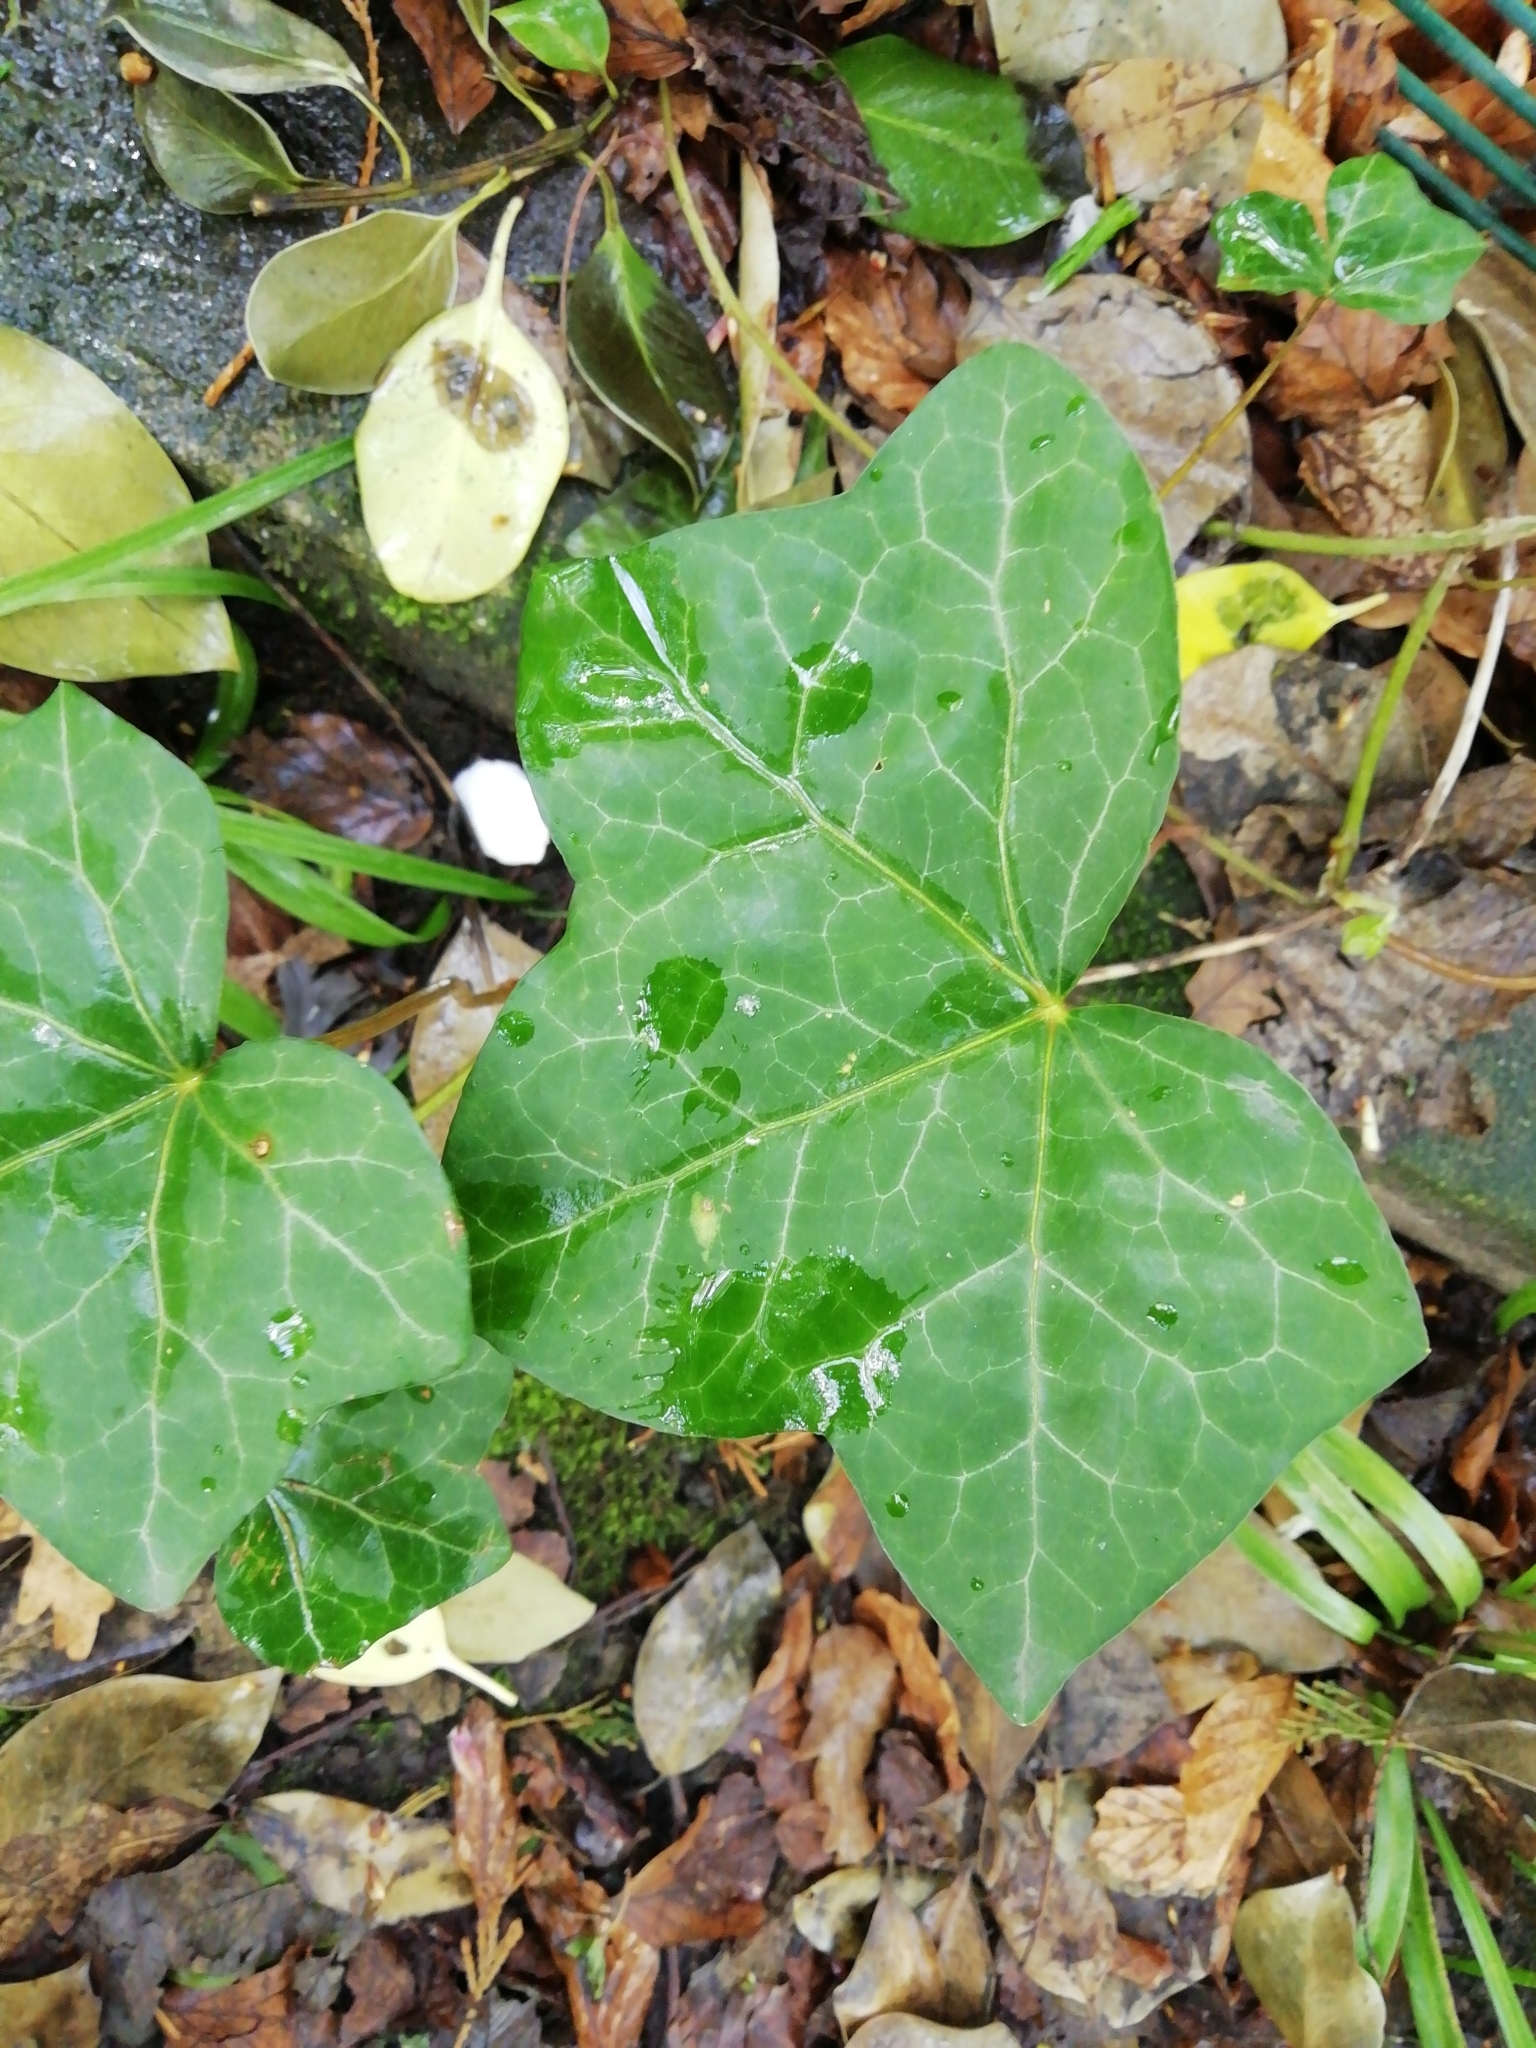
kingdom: Plantae
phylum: Tracheophyta
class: Magnoliopsida
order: Apiales
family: Araliaceae
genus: Hedera
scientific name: Hedera helix
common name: Ivy
